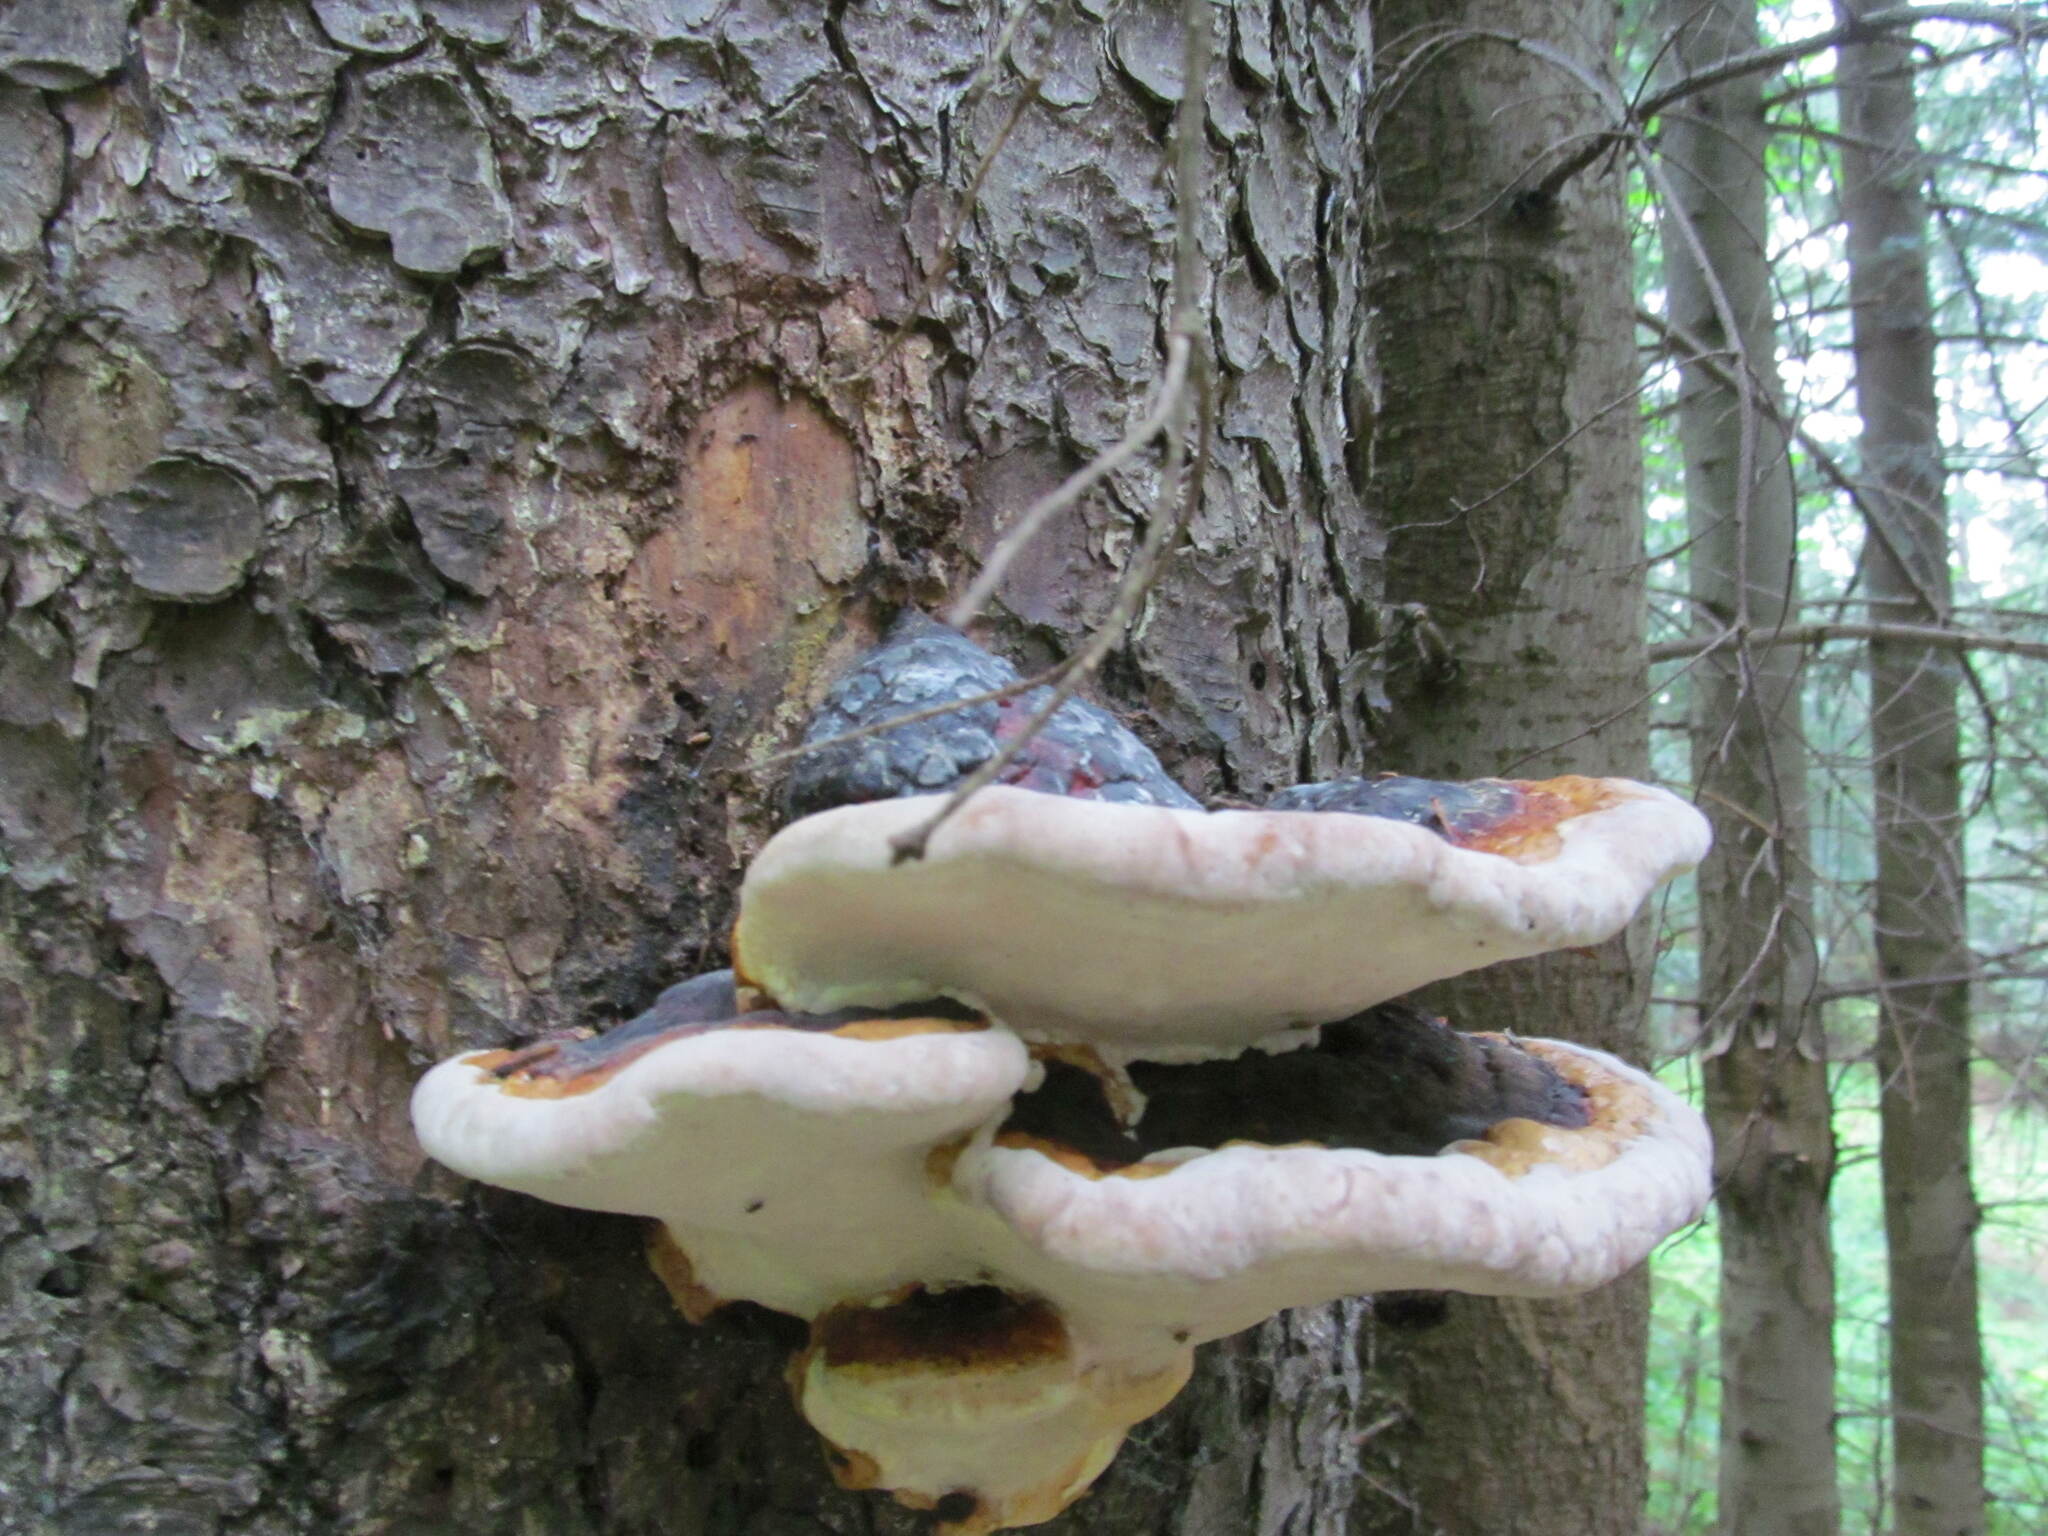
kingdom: Fungi
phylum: Basidiomycota
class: Agaricomycetes
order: Polyporales
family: Fomitopsidaceae
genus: Fomitopsis
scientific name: Fomitopsis pinicola
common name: Red-belted bracket
